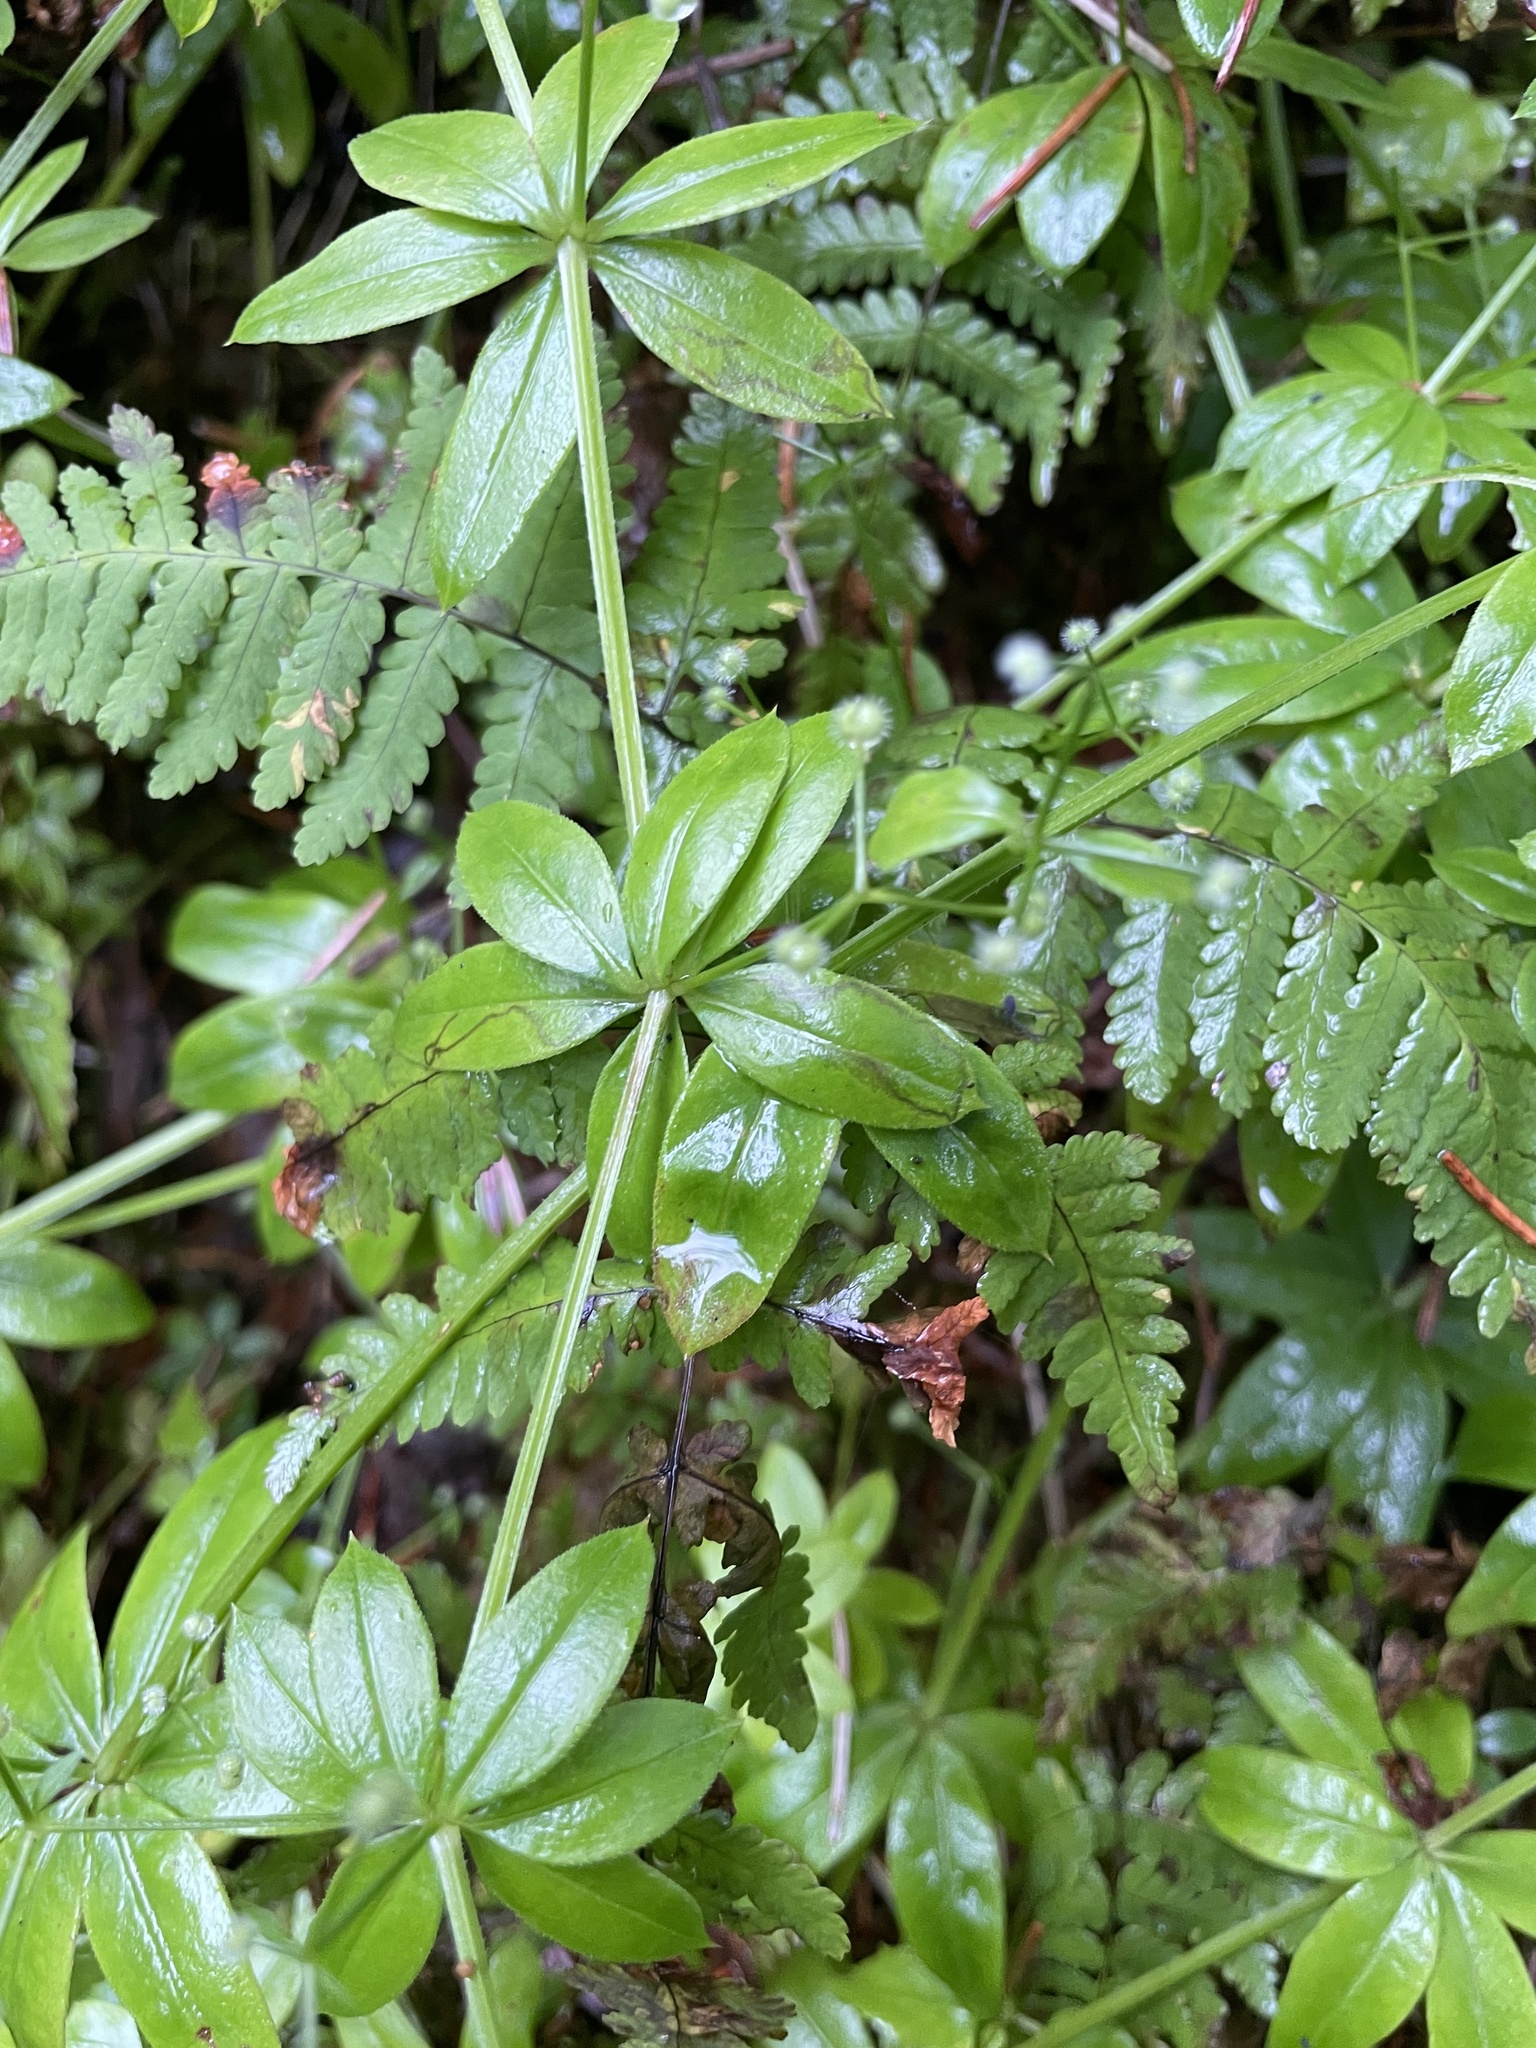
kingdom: Plantae
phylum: Tracheophyta
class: Magnoliopsida
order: Gentianales
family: Rubiaceae
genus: Galium
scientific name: Galium triflorum
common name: Fragrant bedstraw
